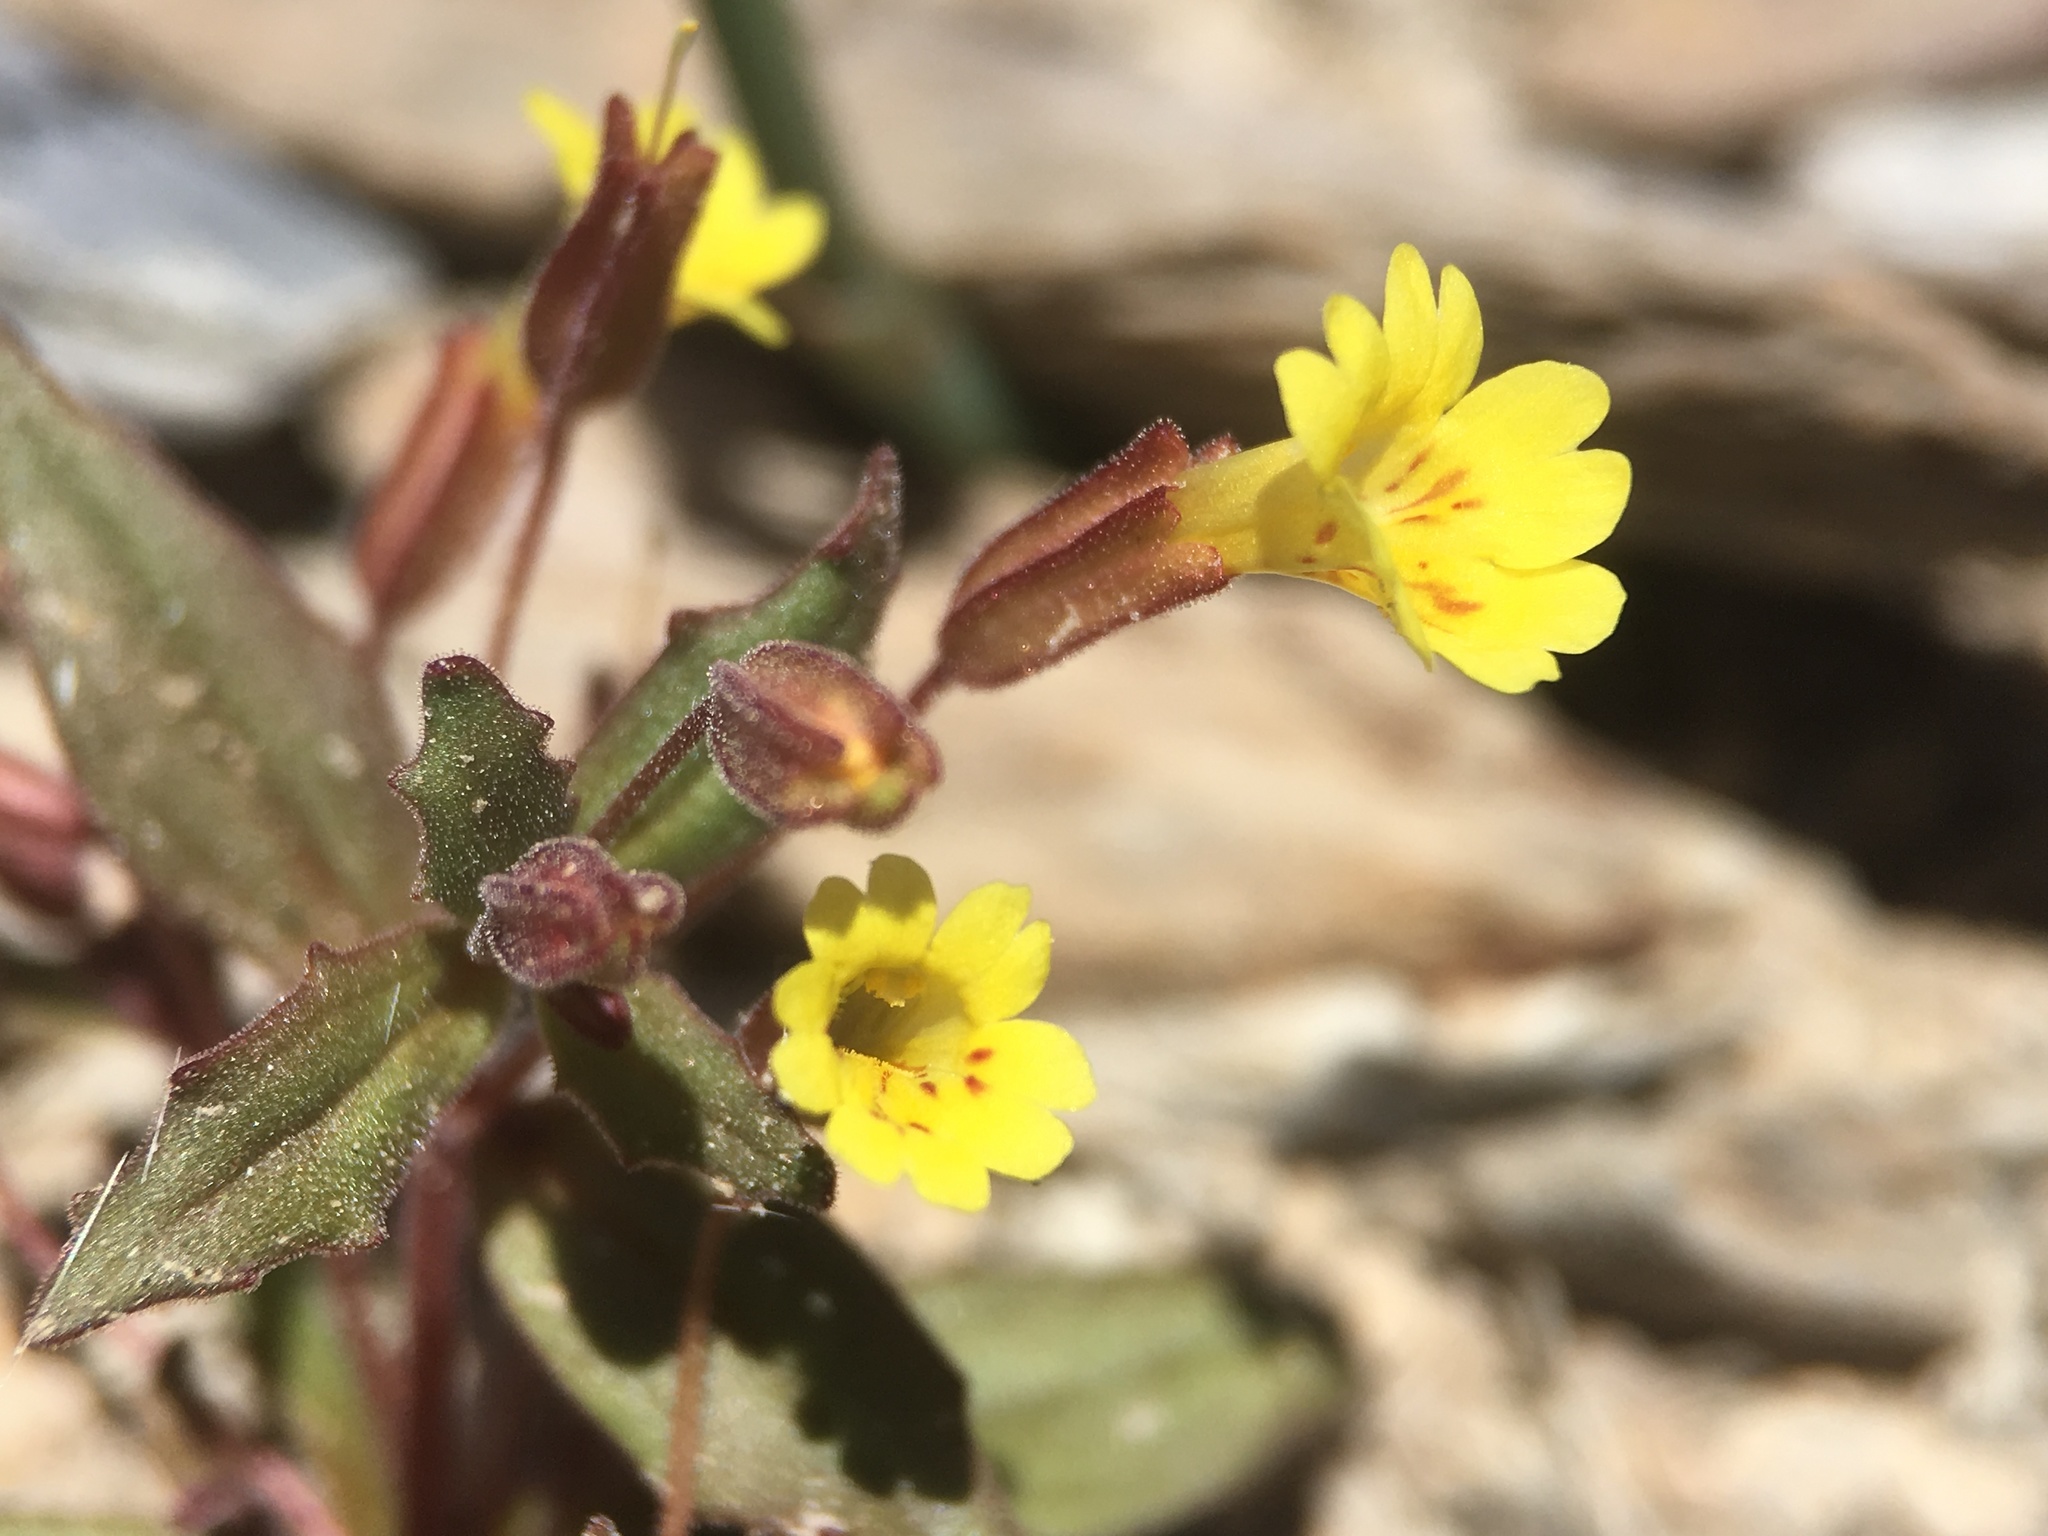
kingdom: Plantae
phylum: Tracheophyta
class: Magnoliopsida
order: Lamiales
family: Phrymaceae
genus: Erythranthe
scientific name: Erythranthe calcicola
